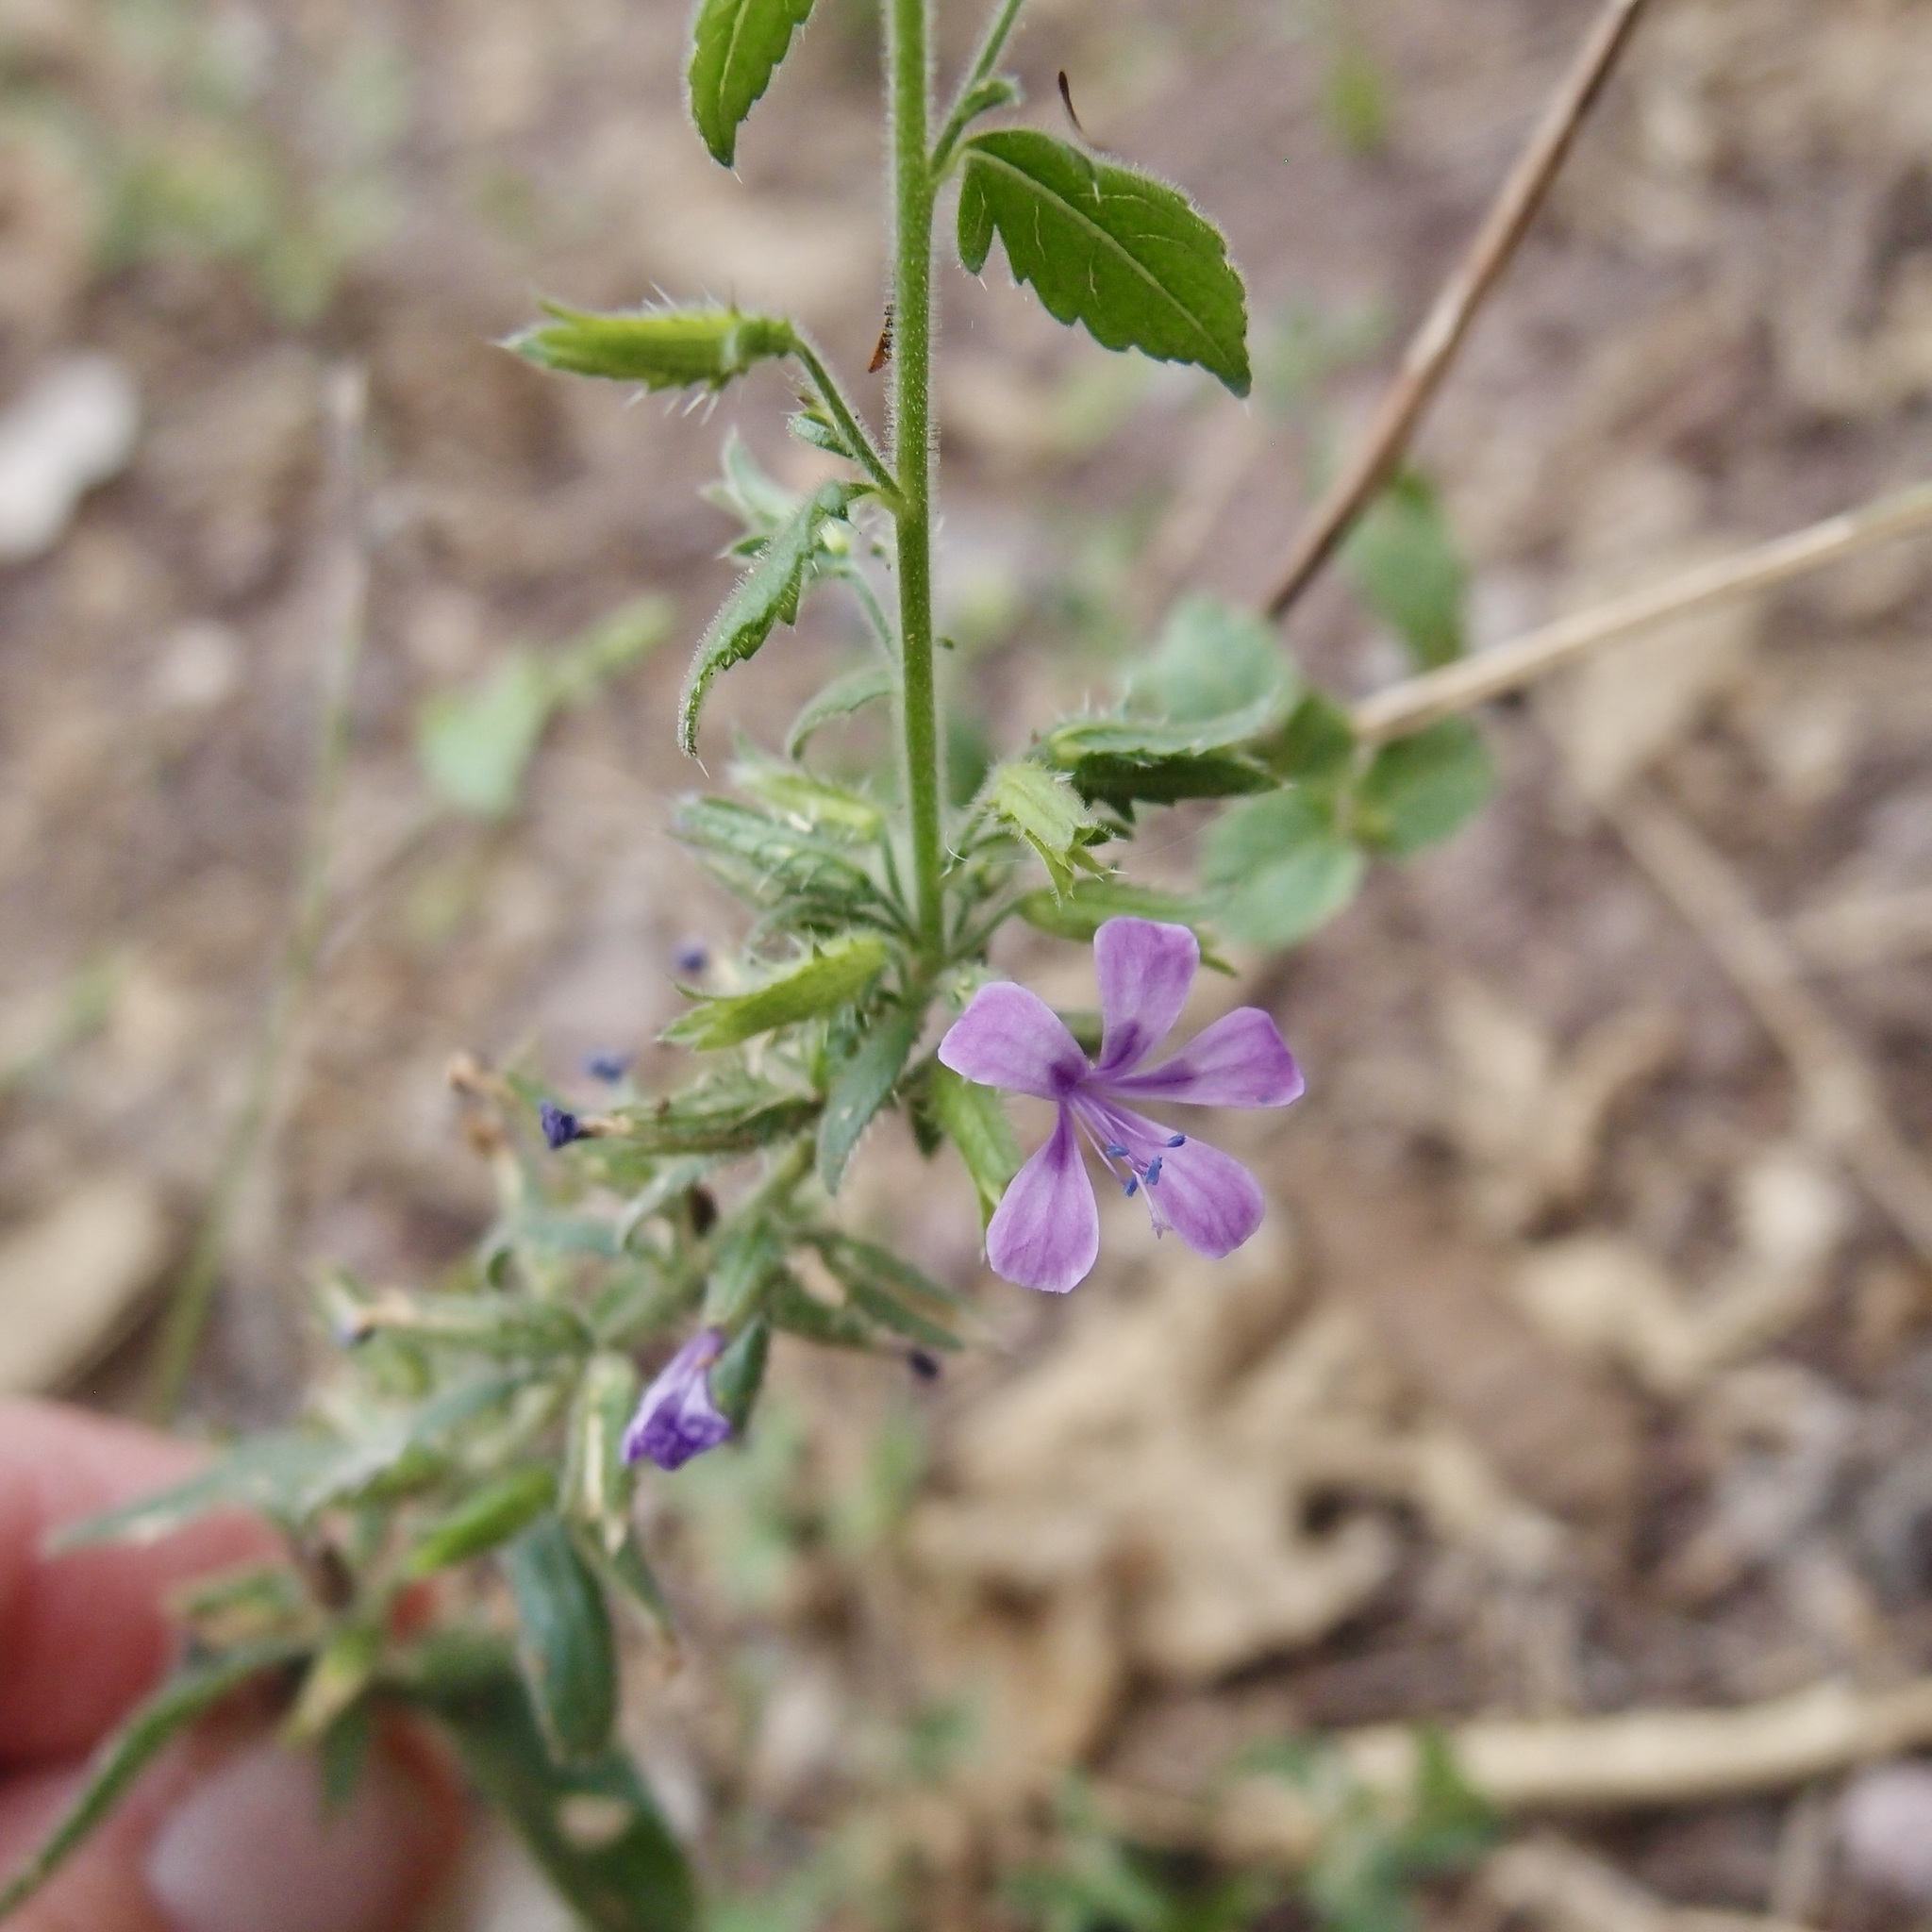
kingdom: Plantae
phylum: Tracheophyta
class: Magnoliopsida
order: Ericales
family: Polemoniaceae
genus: Loeselia
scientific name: Loeselia pumila
